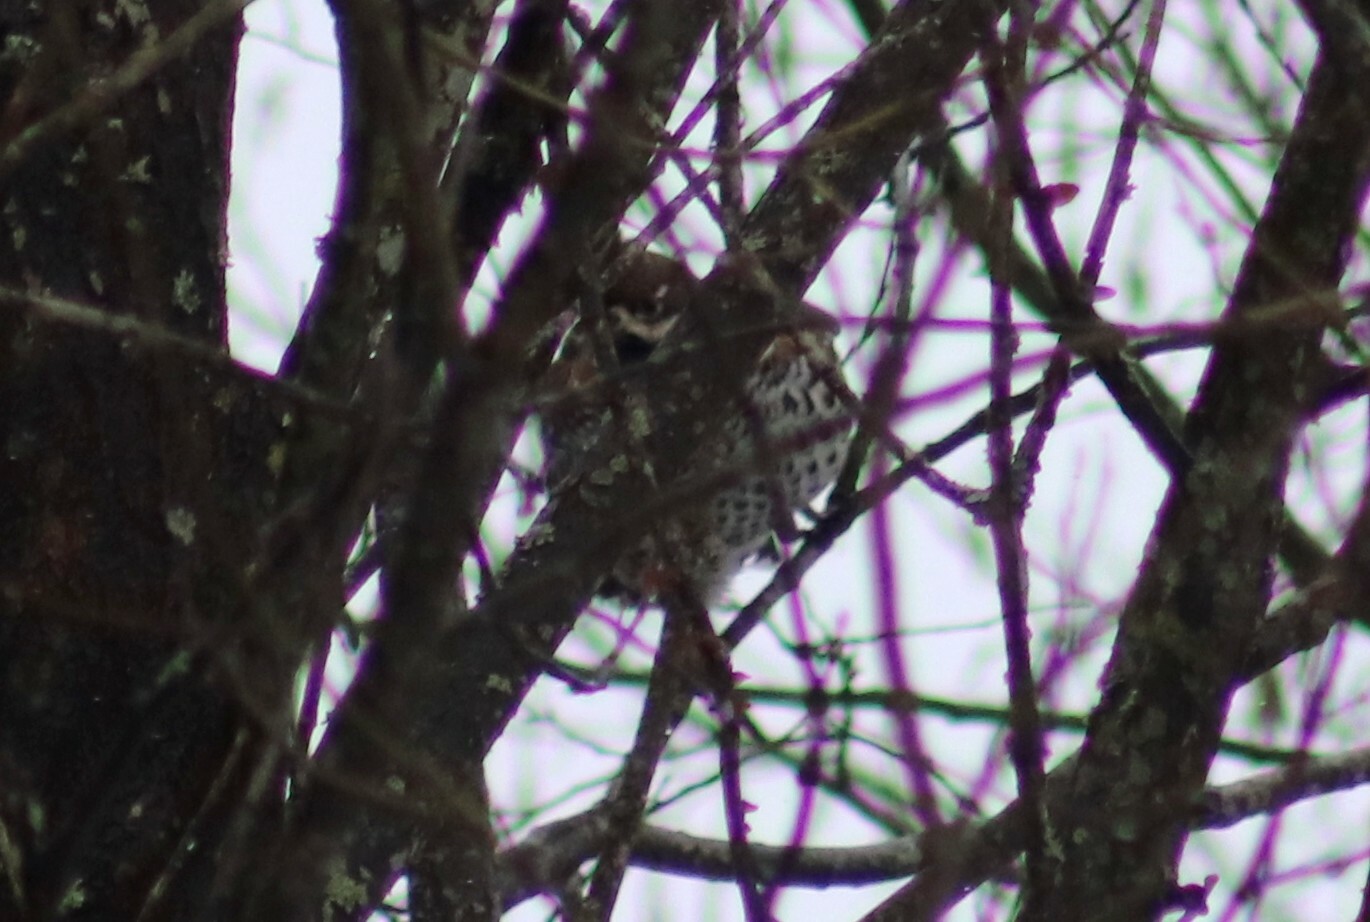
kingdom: Animalia
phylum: Chordata
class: Aves
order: Galliformes
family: Phasianidae
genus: Tetrastes
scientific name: Tetrastes bonasia
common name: Hazel grouse
